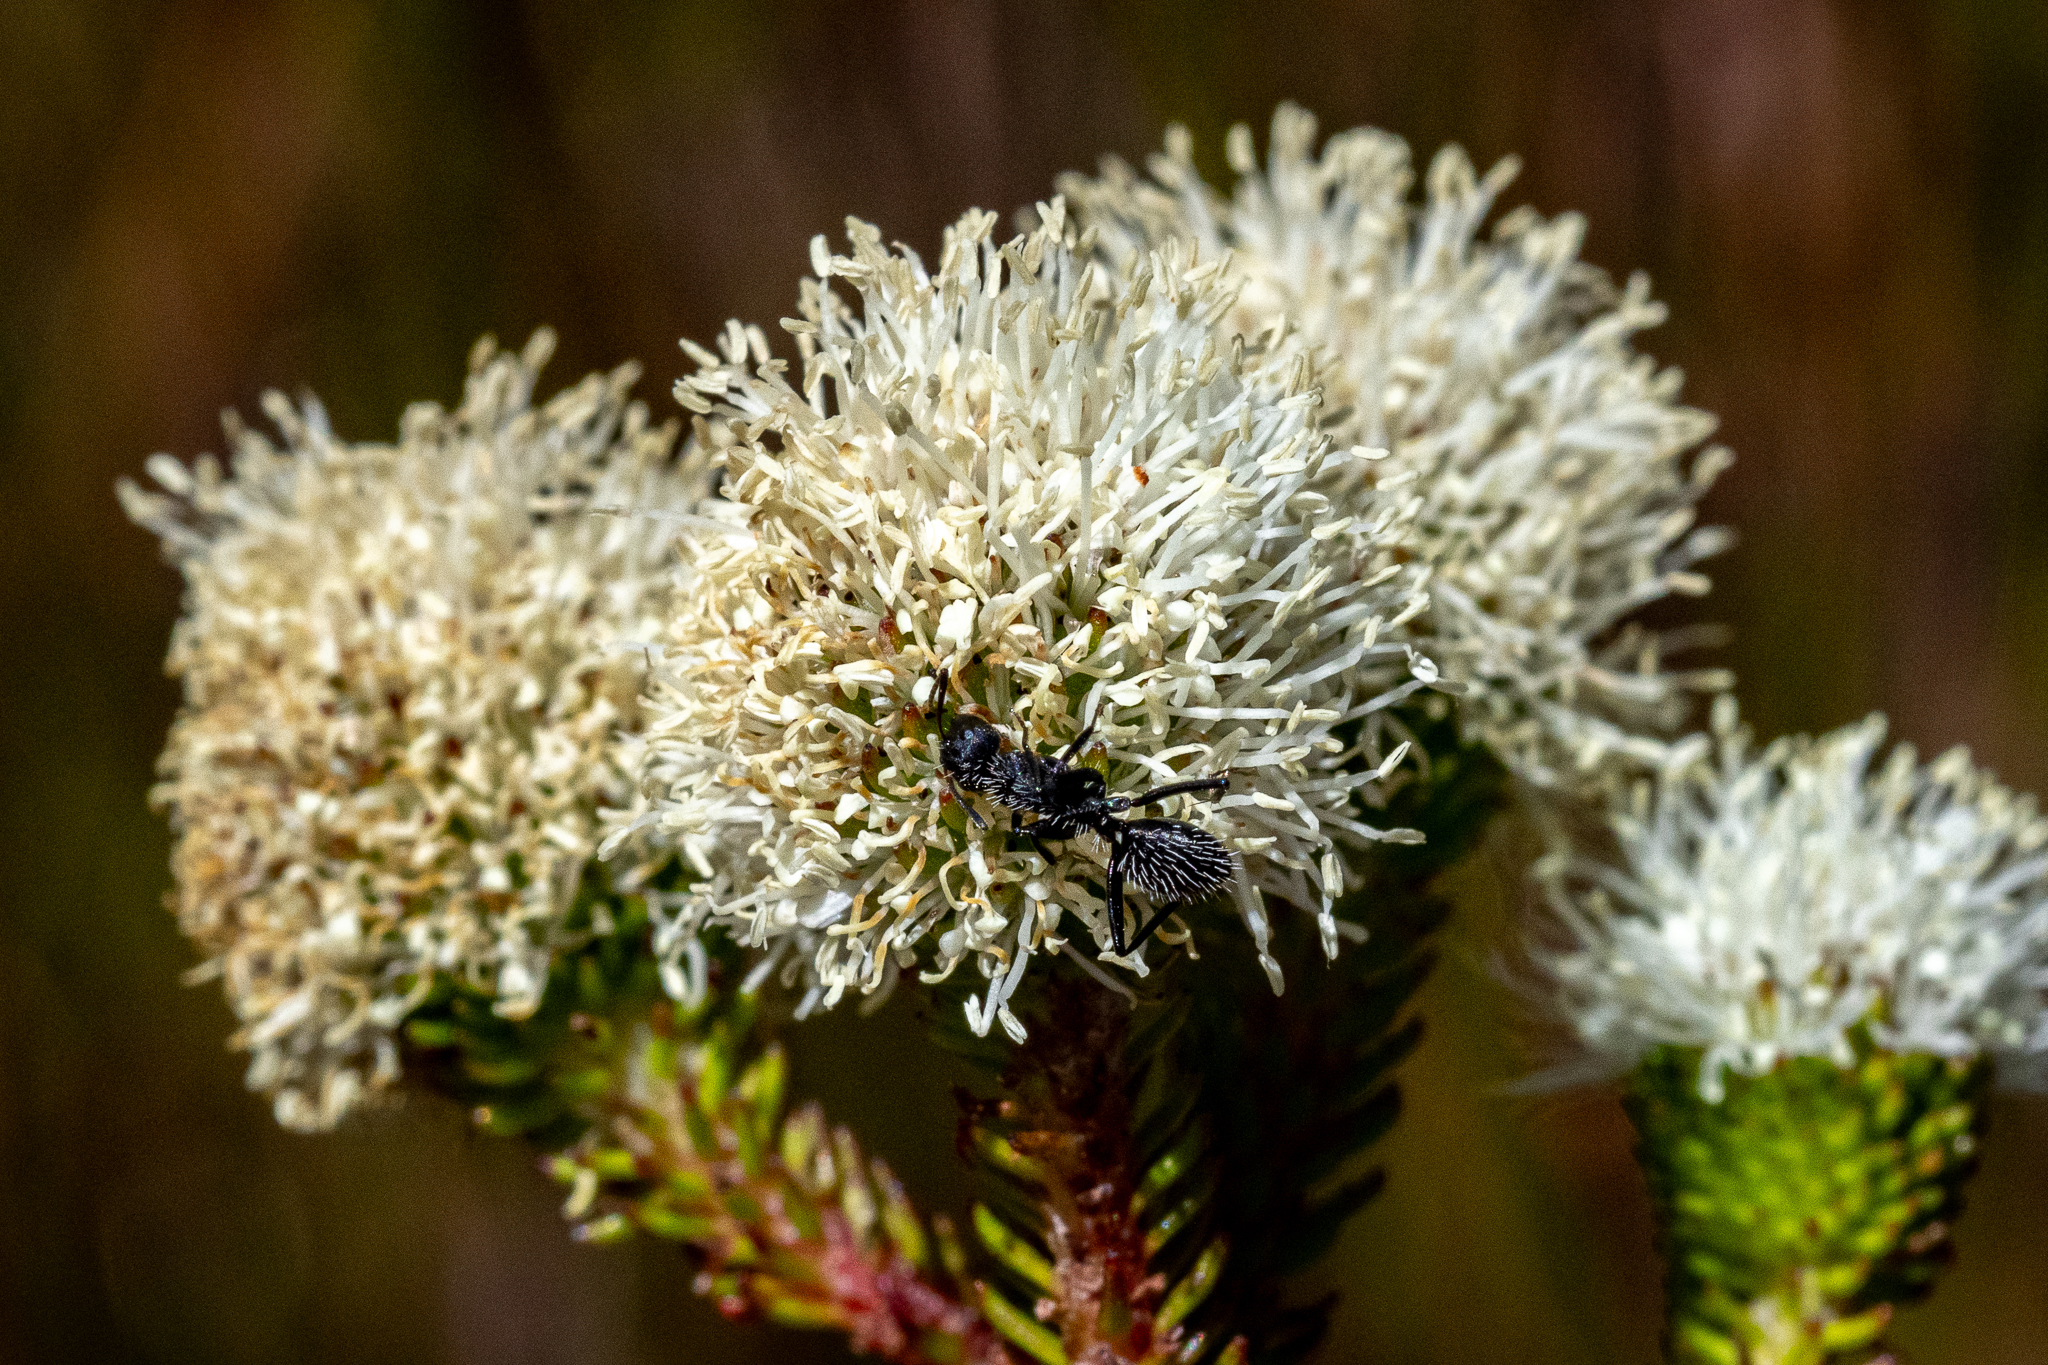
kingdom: Plantae
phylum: Tracheophyta
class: Magnoliopsida
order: Bruniales
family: Bruniaceae
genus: Berzelia
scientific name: Berzelia ecklonii
